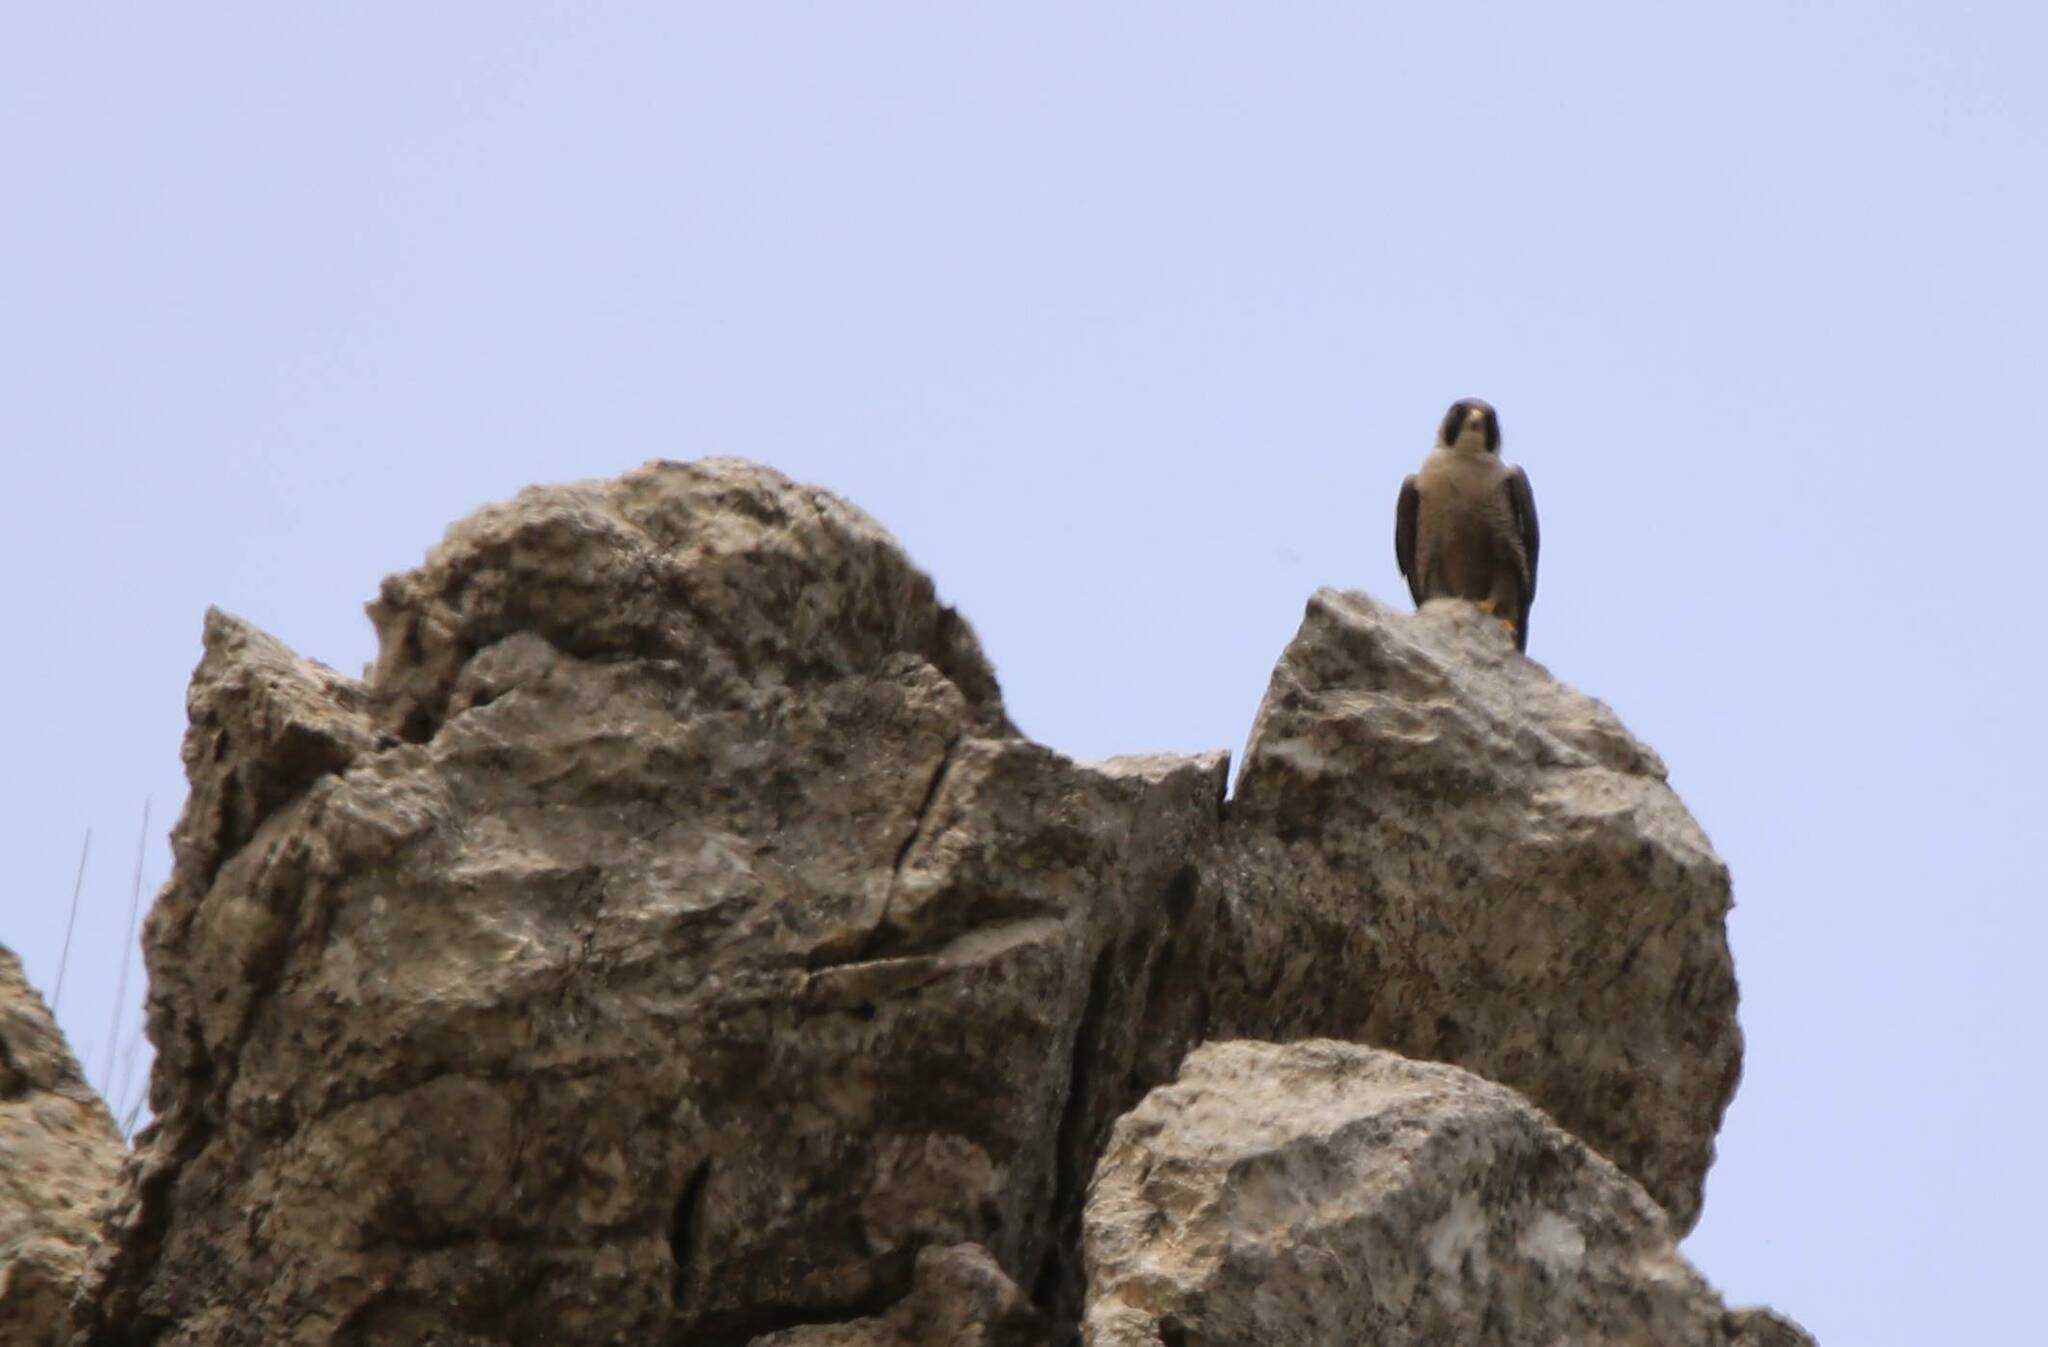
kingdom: Animalia
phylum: Chordata
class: Aves
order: Falconiformes
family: Falconidae
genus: Falco
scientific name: Falco peregrinus
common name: Peregrine falcon
